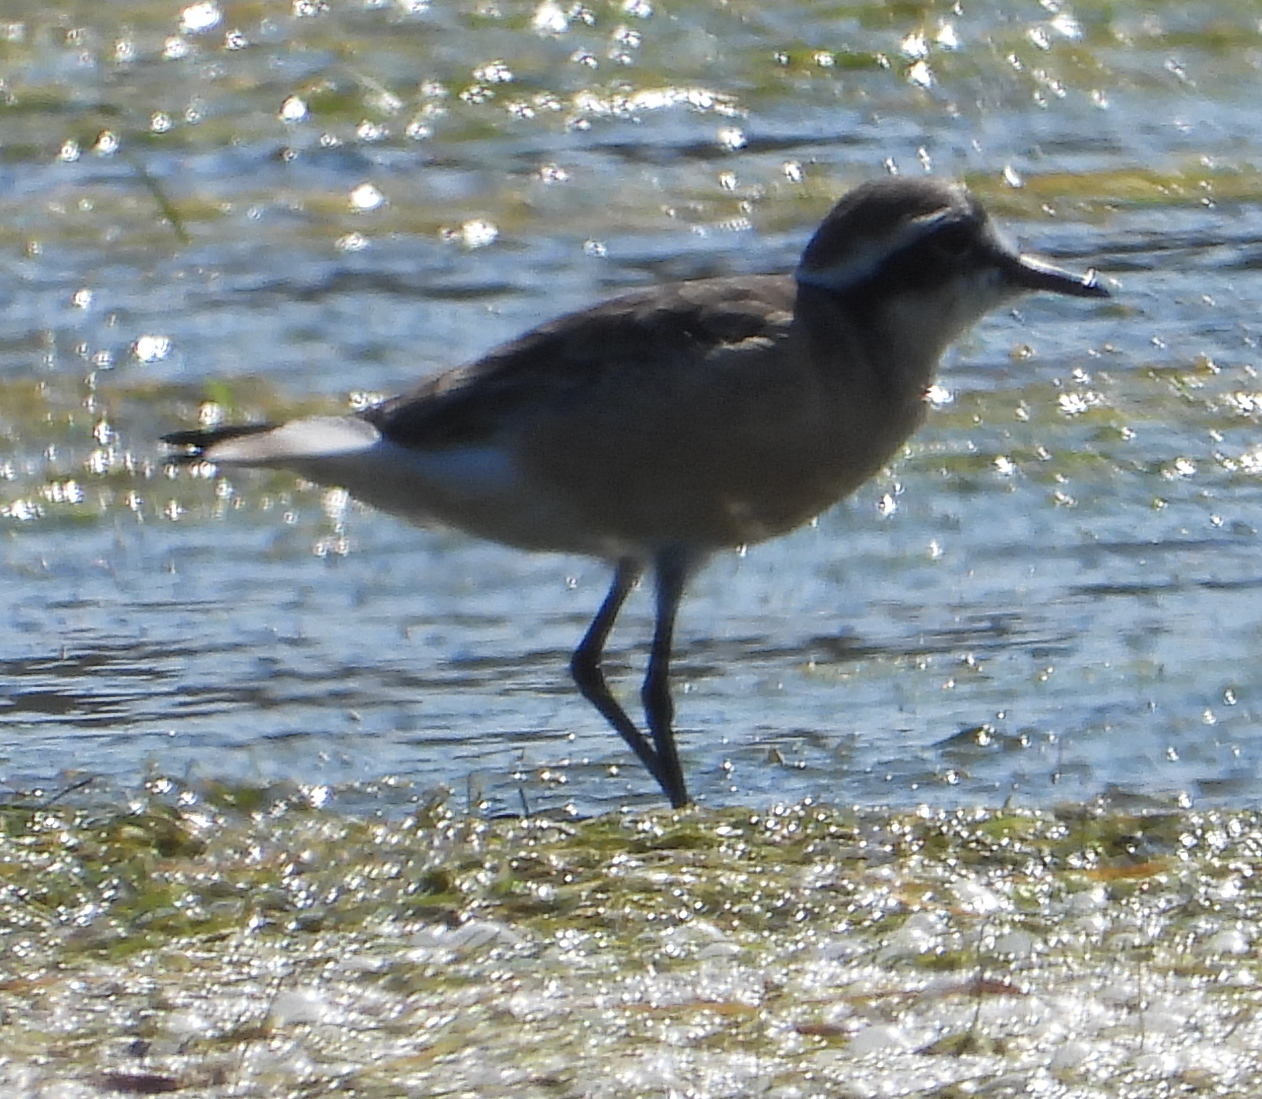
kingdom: Animalia
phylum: Chordata
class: Aves
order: Charadriiformes
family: Charadriidae
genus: Anarhynchus
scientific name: Anarhynchus
